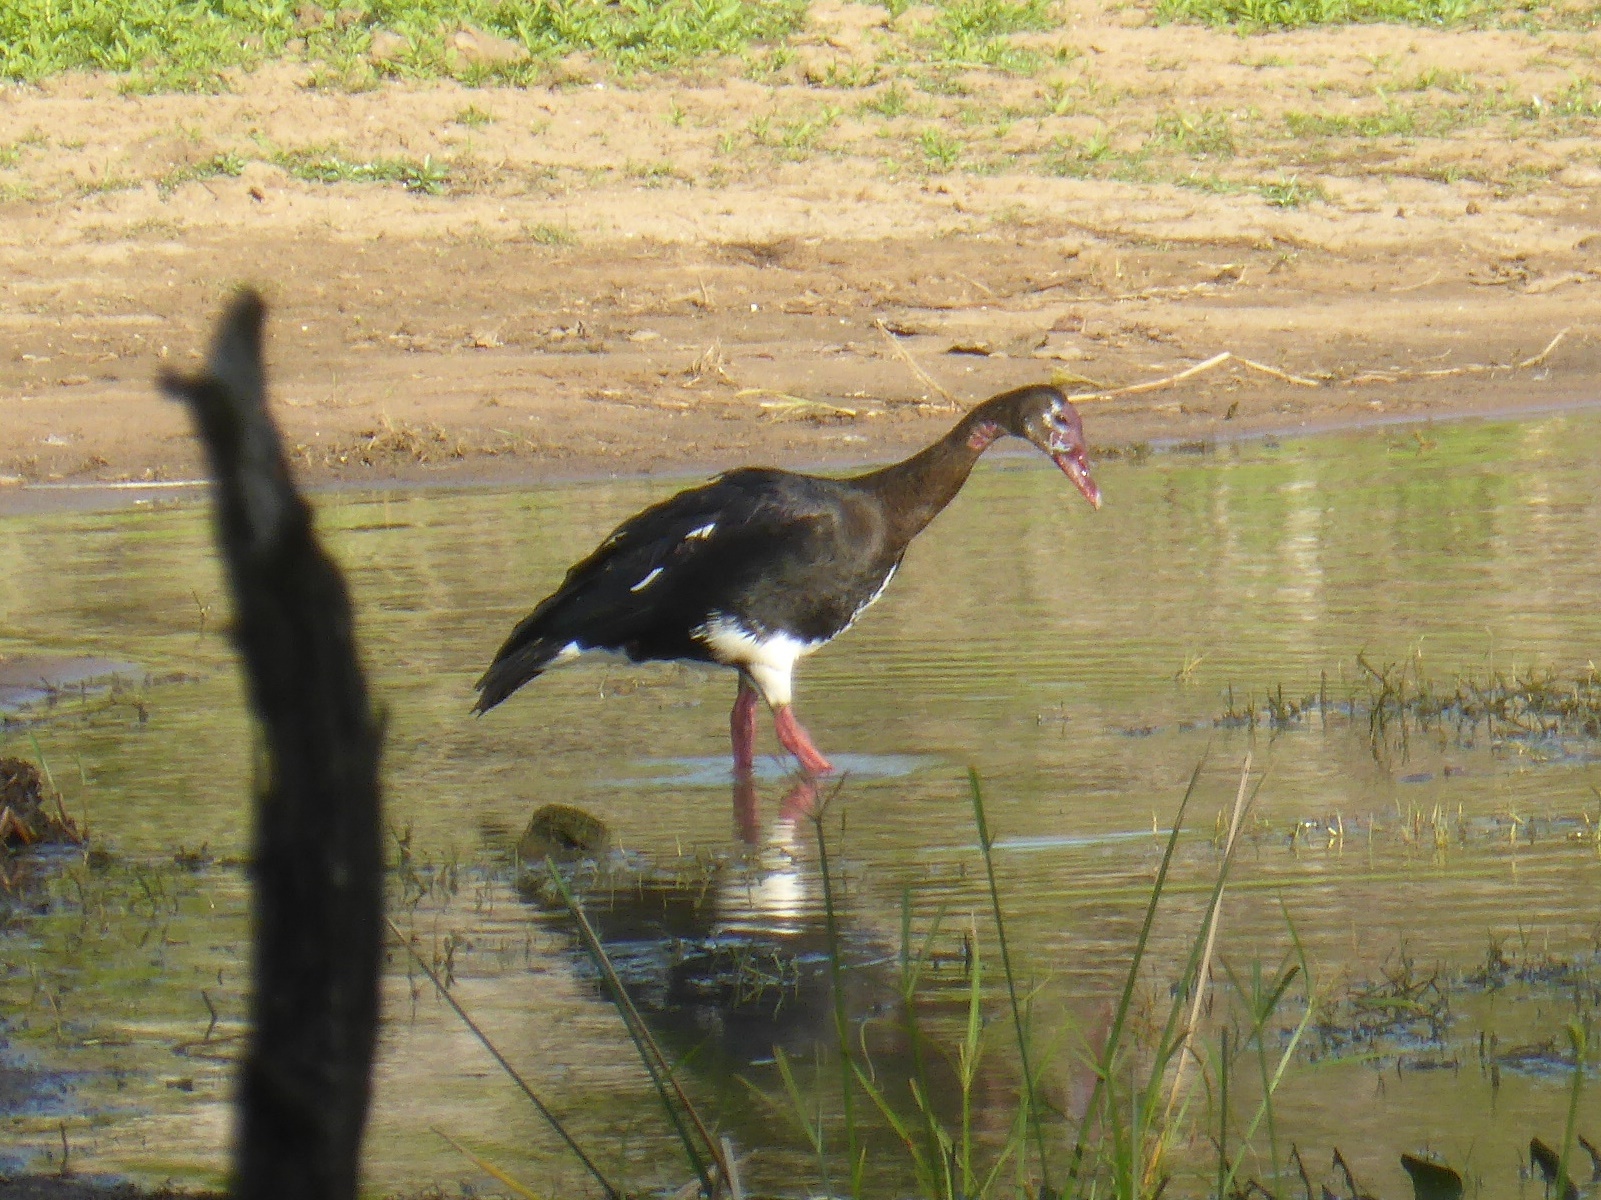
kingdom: Animalia
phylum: Chordata
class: Aves
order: Anseriformes
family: Anatidae
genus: Plectropterus
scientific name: Plectropterus gambensis
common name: Spur-winged goose
